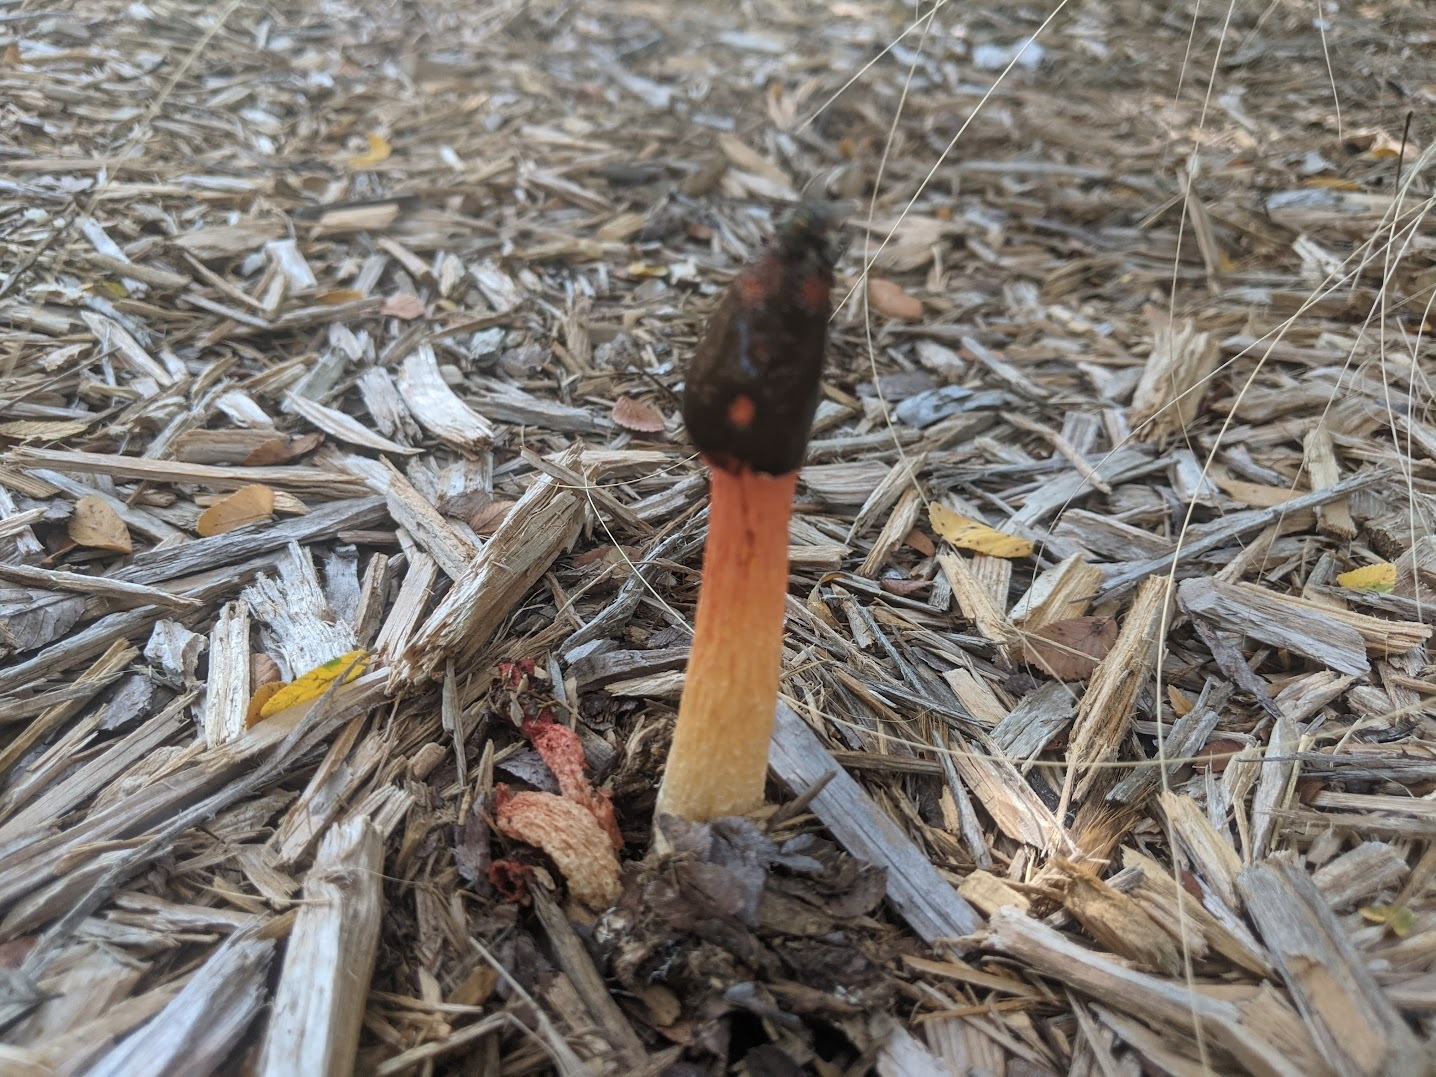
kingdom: Fungi
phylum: Basidiomycota
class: Agaricomycetes
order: Phallales
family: Phallaceae
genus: Phallus
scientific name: Phallus rugulosus
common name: Wrinkly stinkhorn
